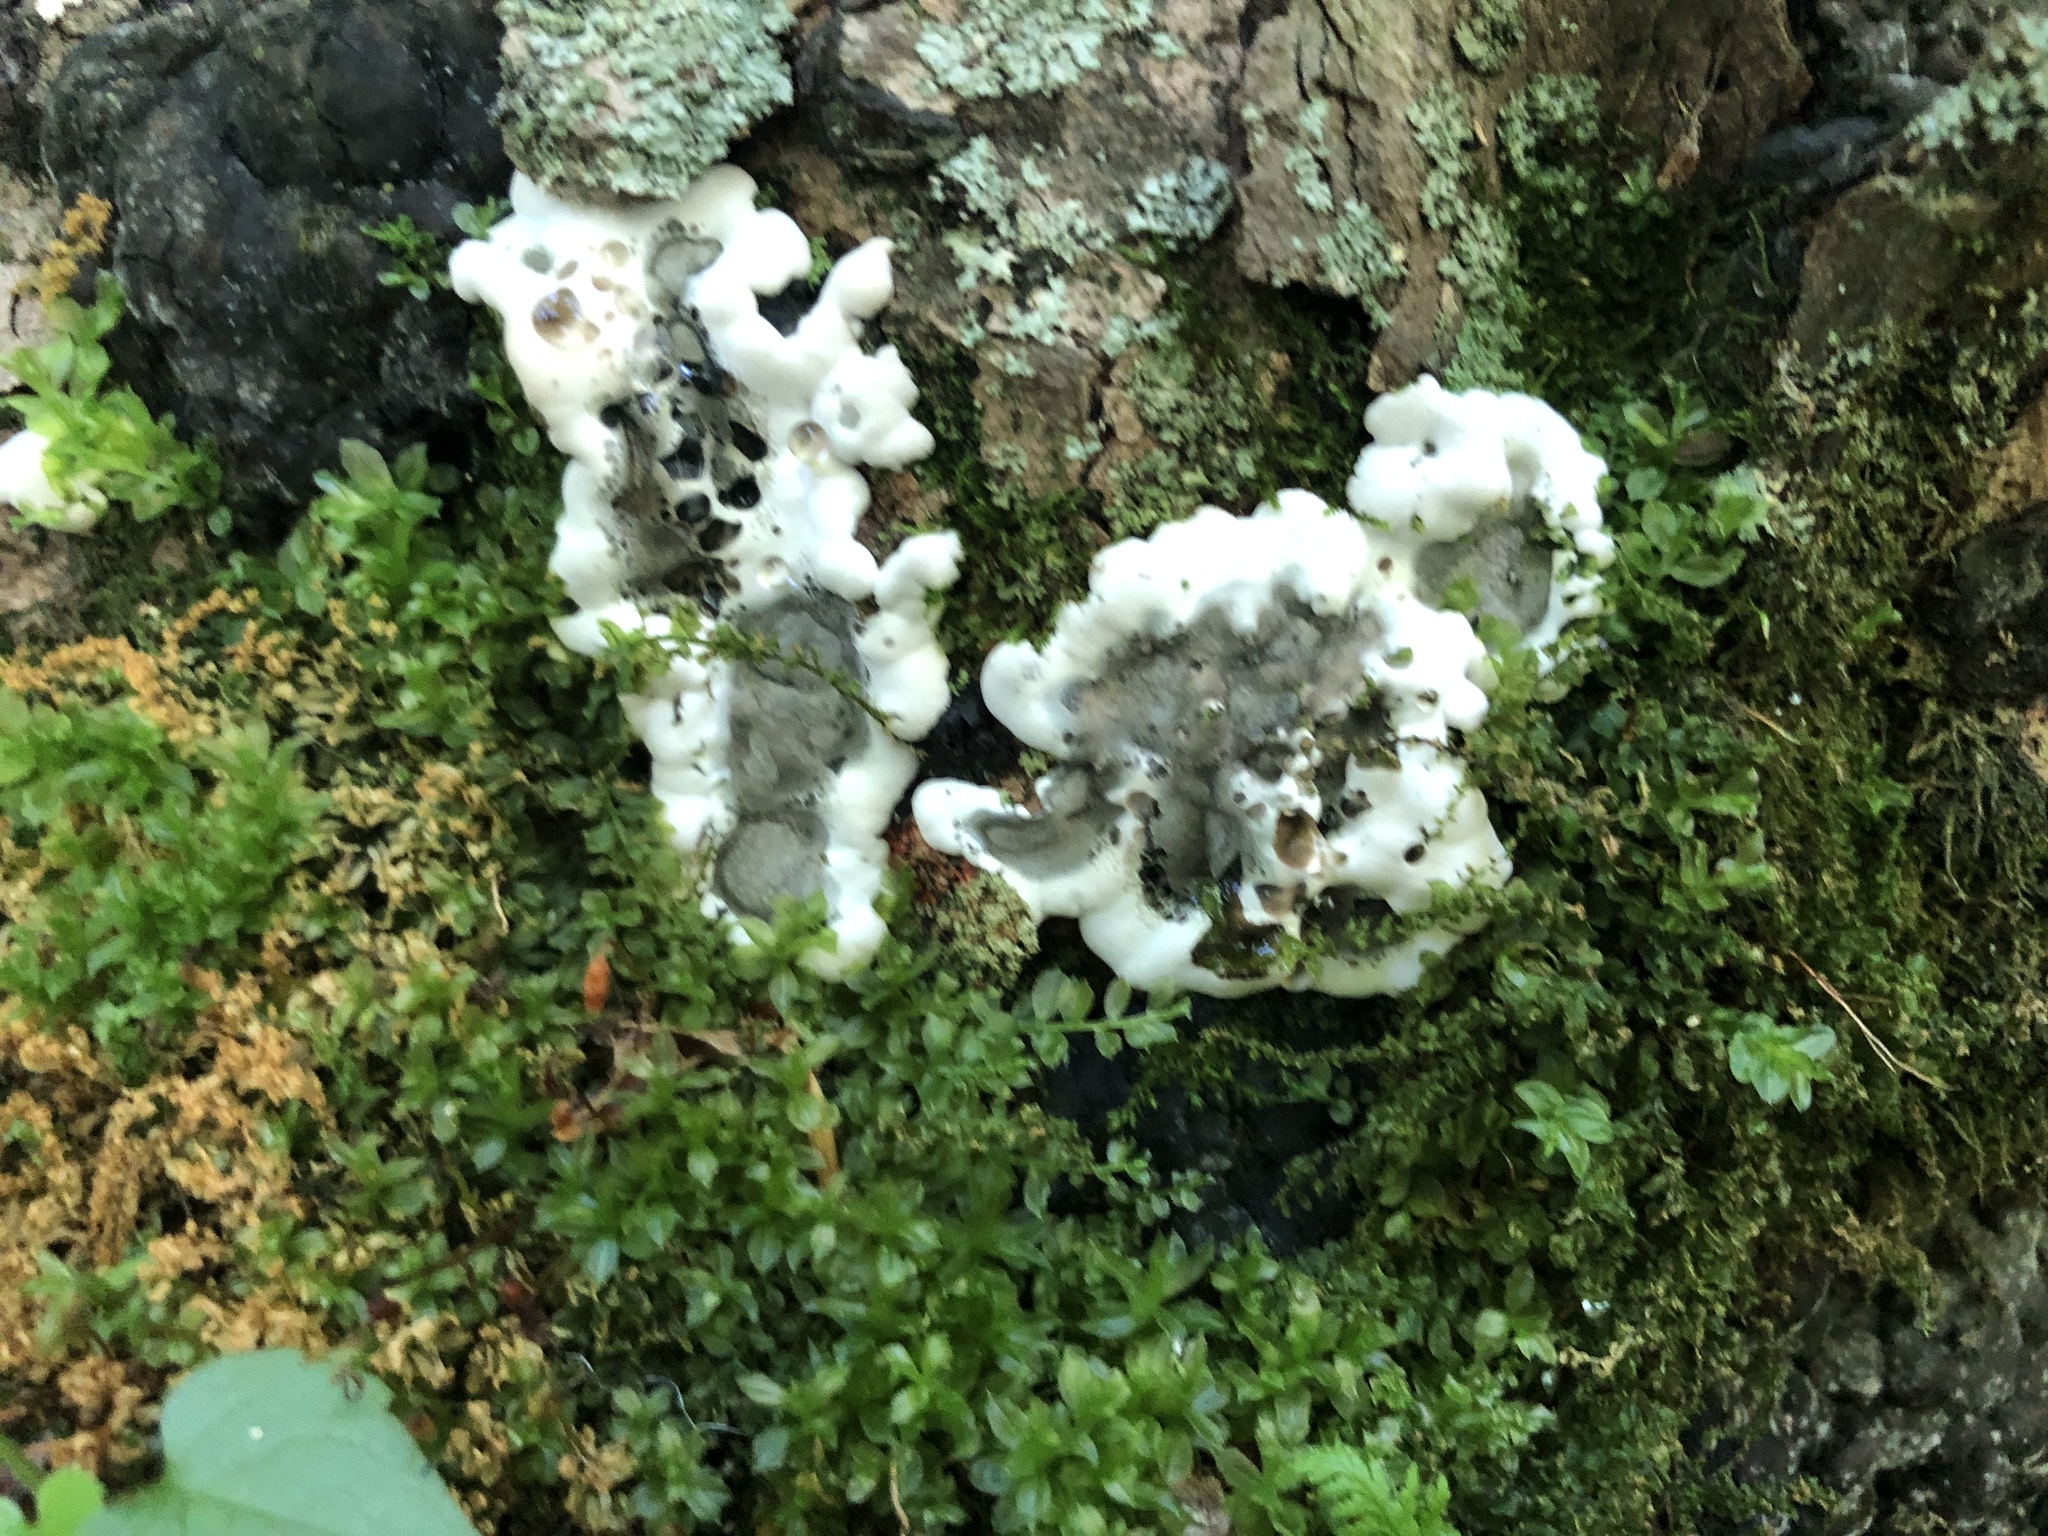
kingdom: Fungi
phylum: Ascomycota
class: Sordariomycetes
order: Xylariales
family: Xylariaceae
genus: Kretzschmaria
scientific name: Kretzschmaria deusta
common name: Brittle cinder
